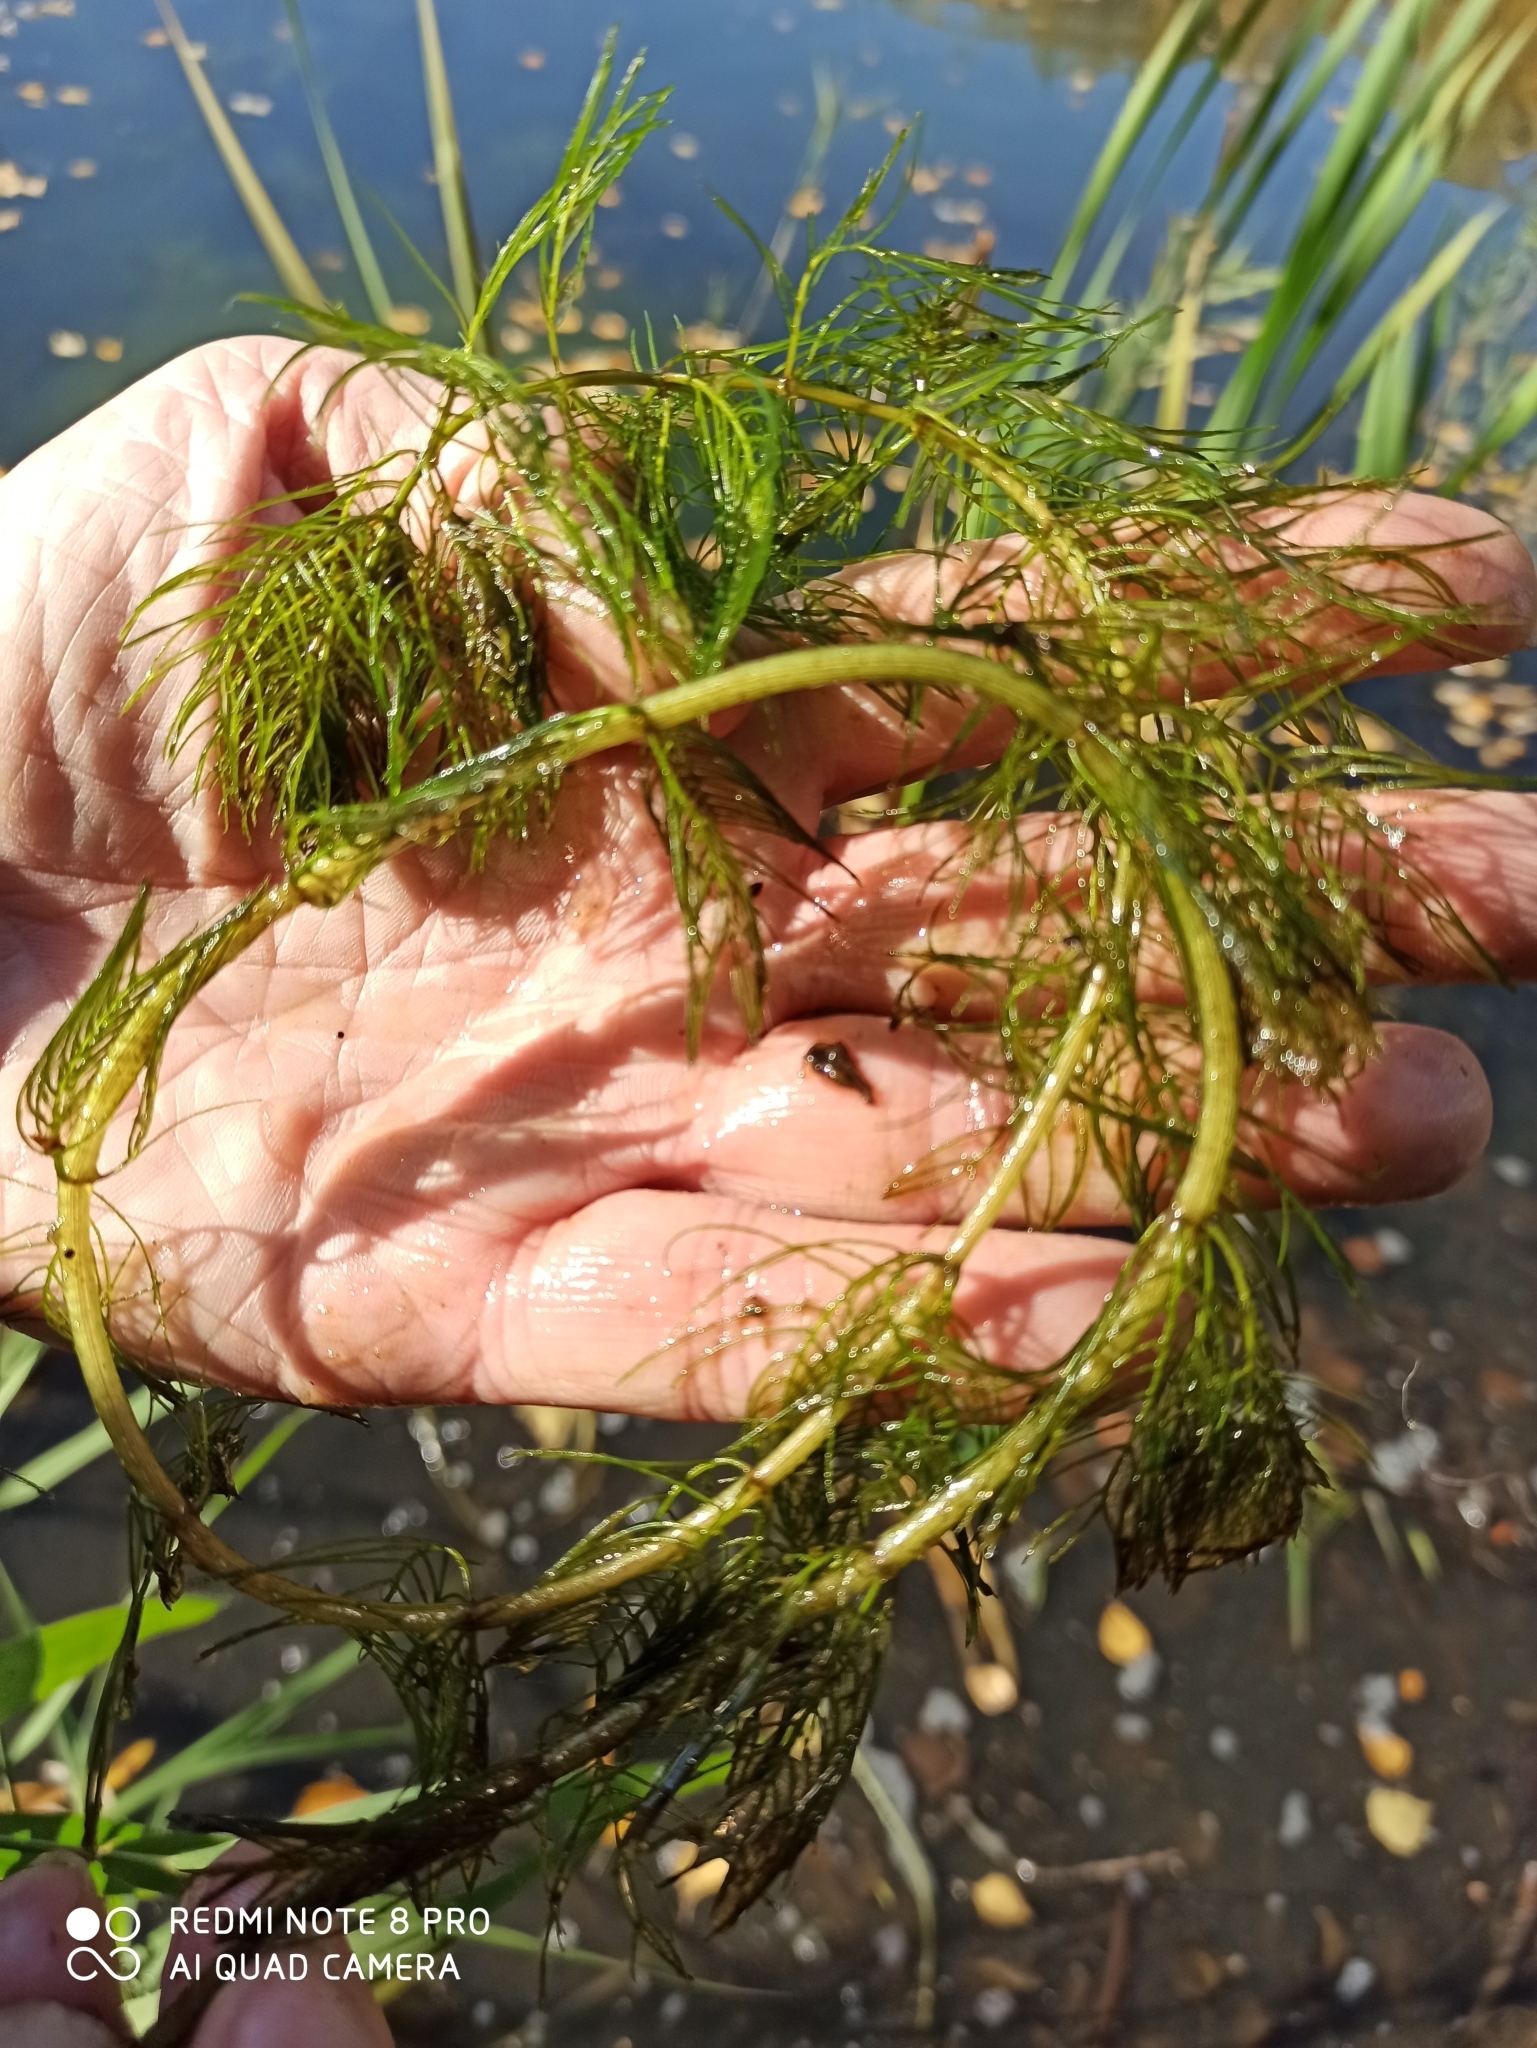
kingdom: Plantae
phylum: Tracheophyta
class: Magnoliopsida
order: Saxifragales
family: Haloragaceae
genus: Myriophyllum
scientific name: Myriophyllum verticillatum
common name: Whorled water-milfoil
